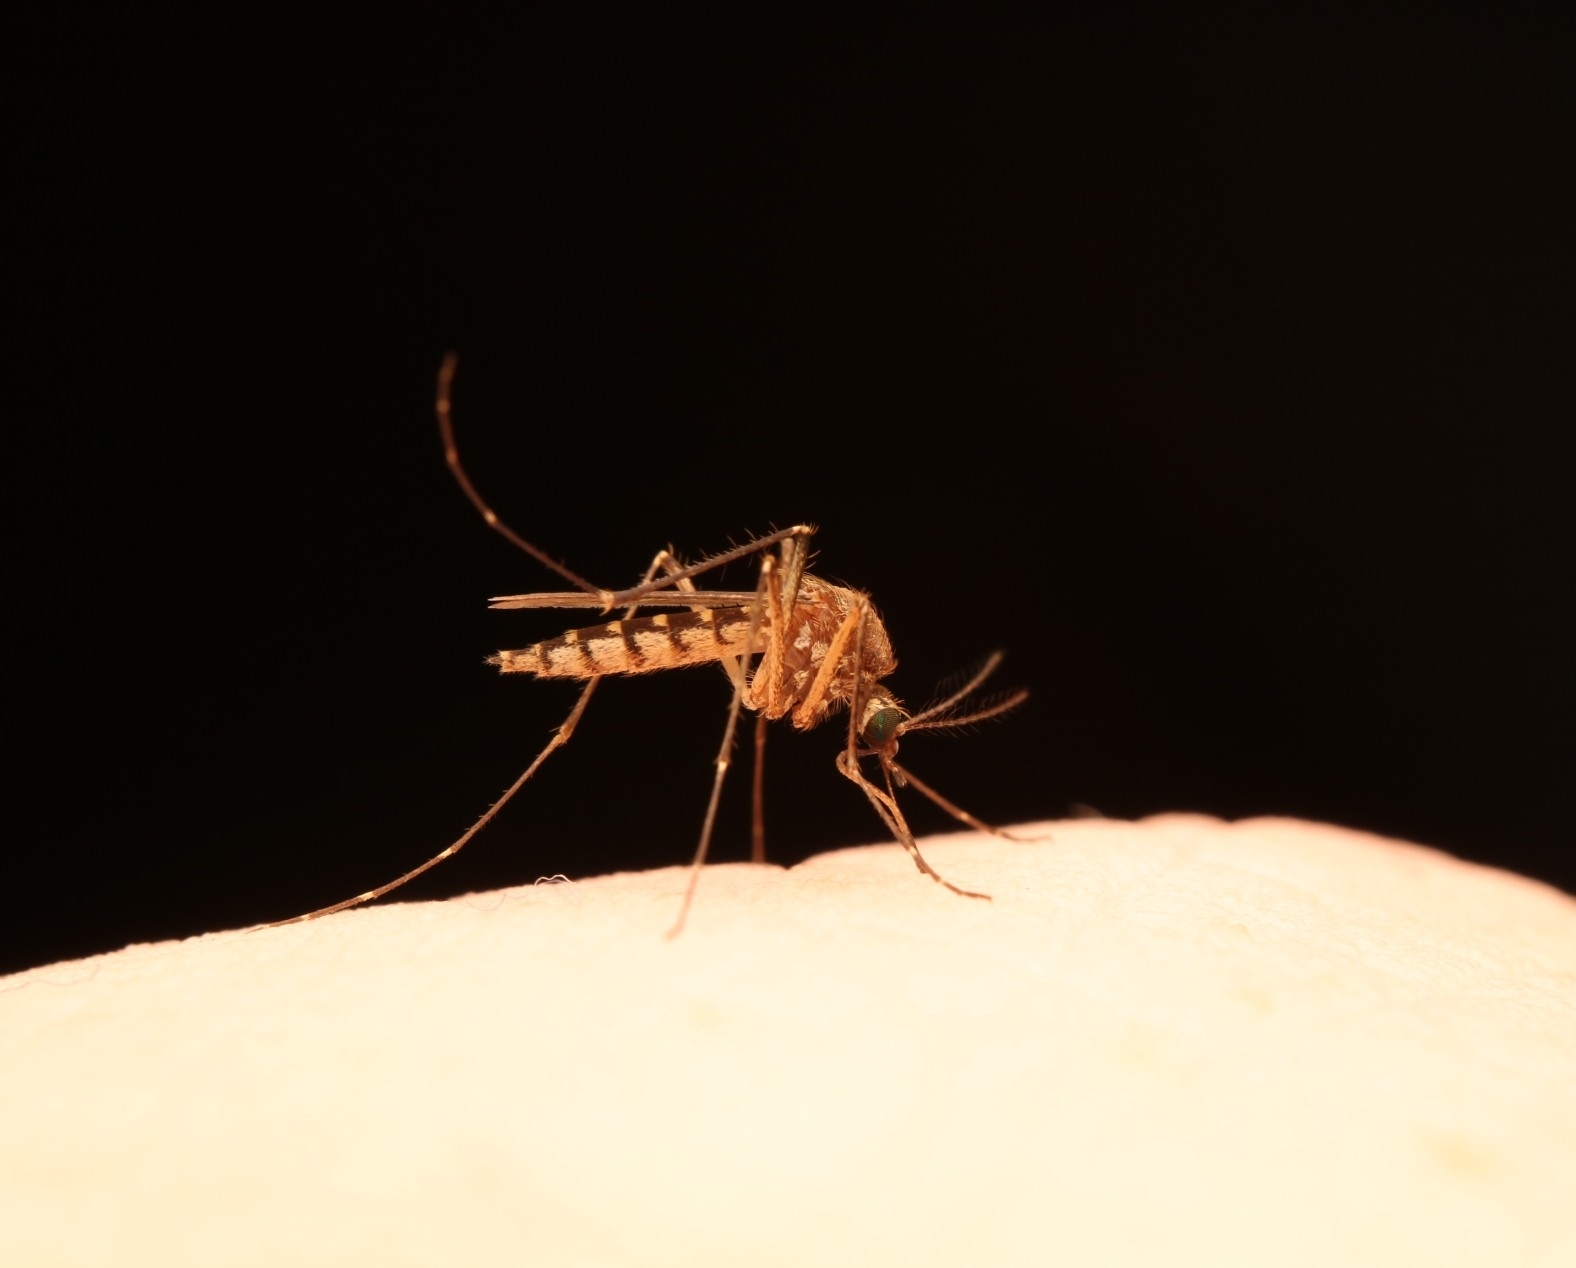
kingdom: Animalia
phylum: Arthropoda
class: Insecta
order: Diptera
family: Culicidae
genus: Aedes
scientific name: Aedes vexans
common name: Inland floodwater mosquito
